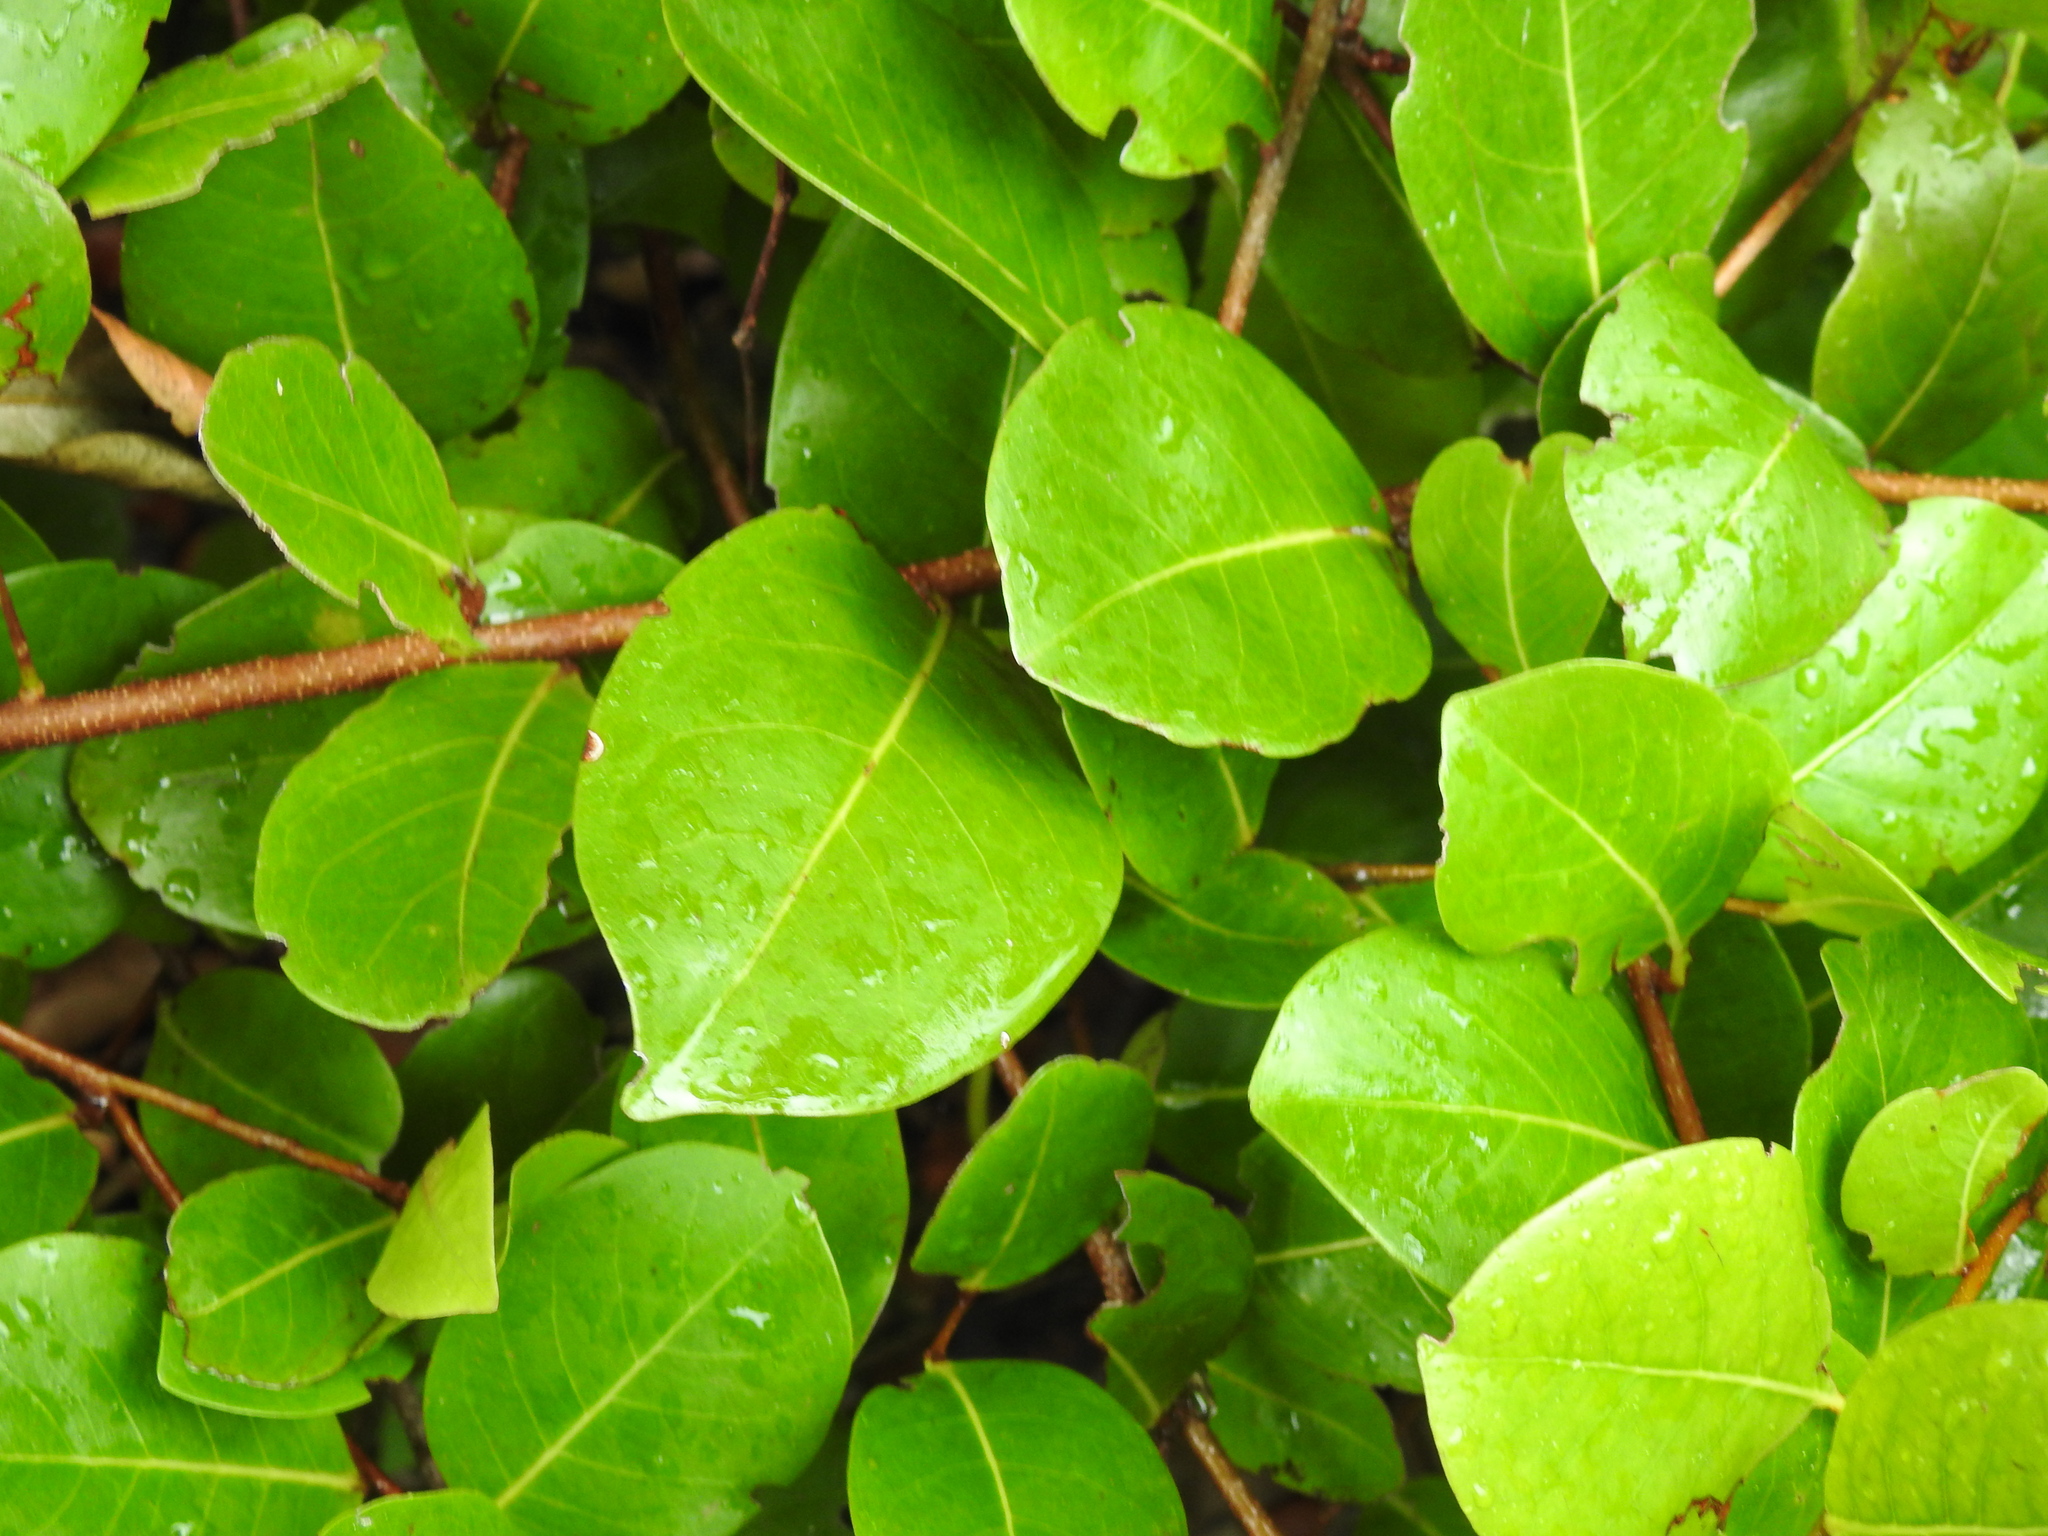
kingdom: Plantae
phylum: Tracheophyta
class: Magnoliopsida
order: Malpighiales
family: Chrysobalanaceae
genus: Chrysobalanus
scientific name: Chrysobalanus icaco
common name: Coco plum
